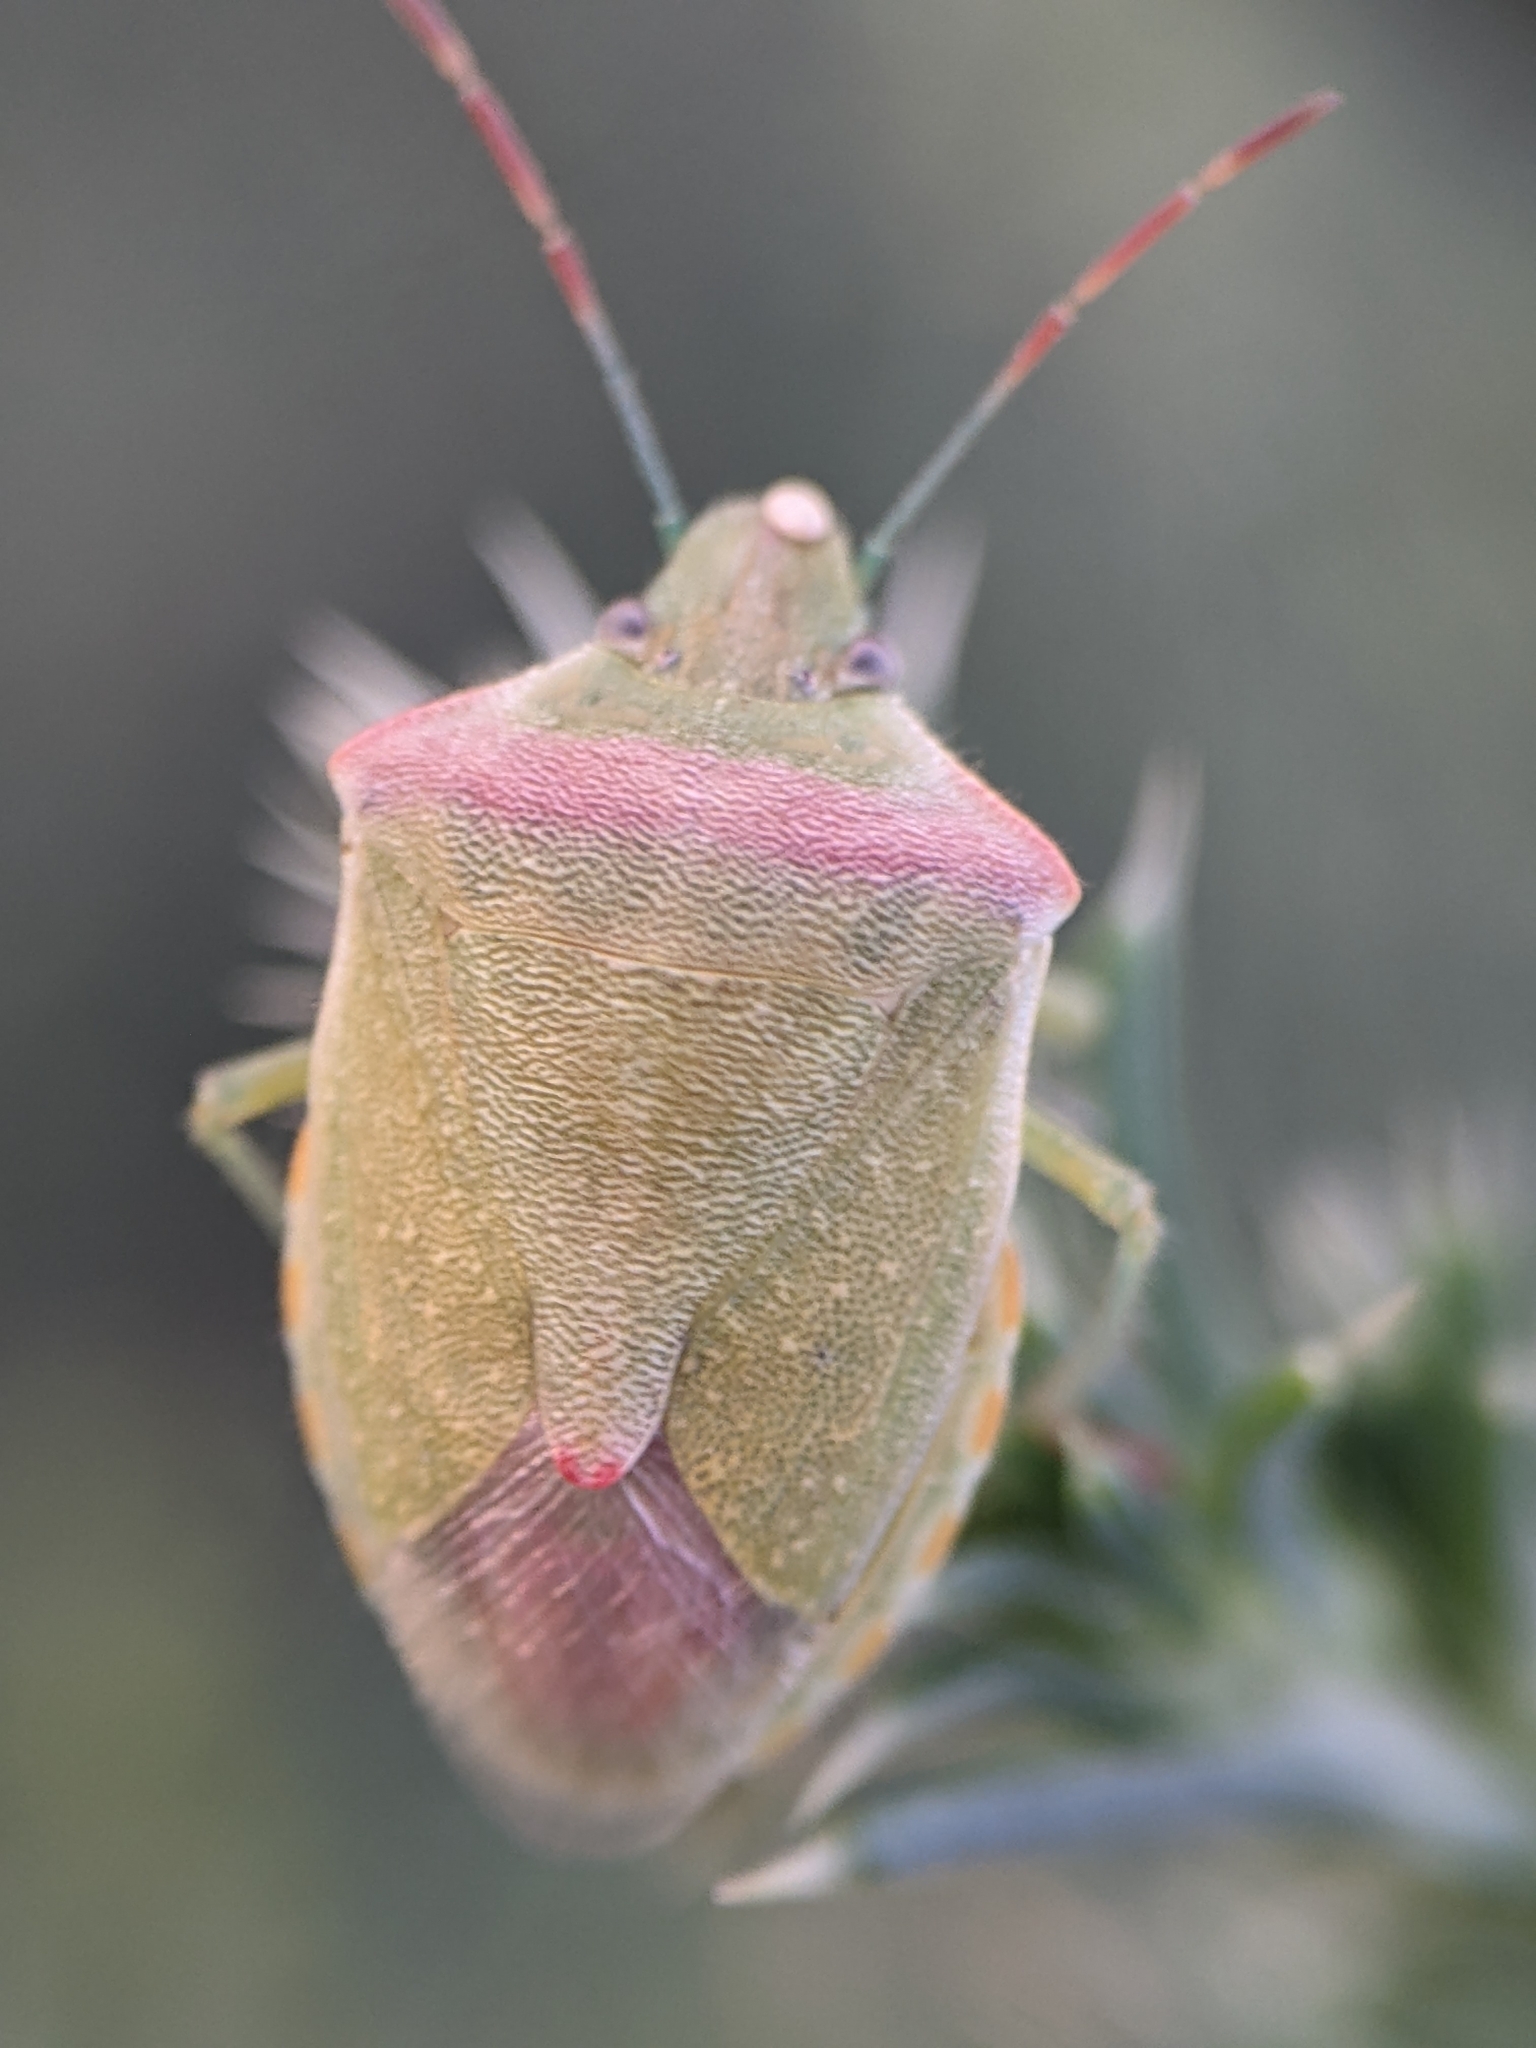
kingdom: Animalia
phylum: Arthropoda
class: Insecta
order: Hemiptera
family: Pentatomidae
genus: Thyanta
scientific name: Thyanta pallidovirens
